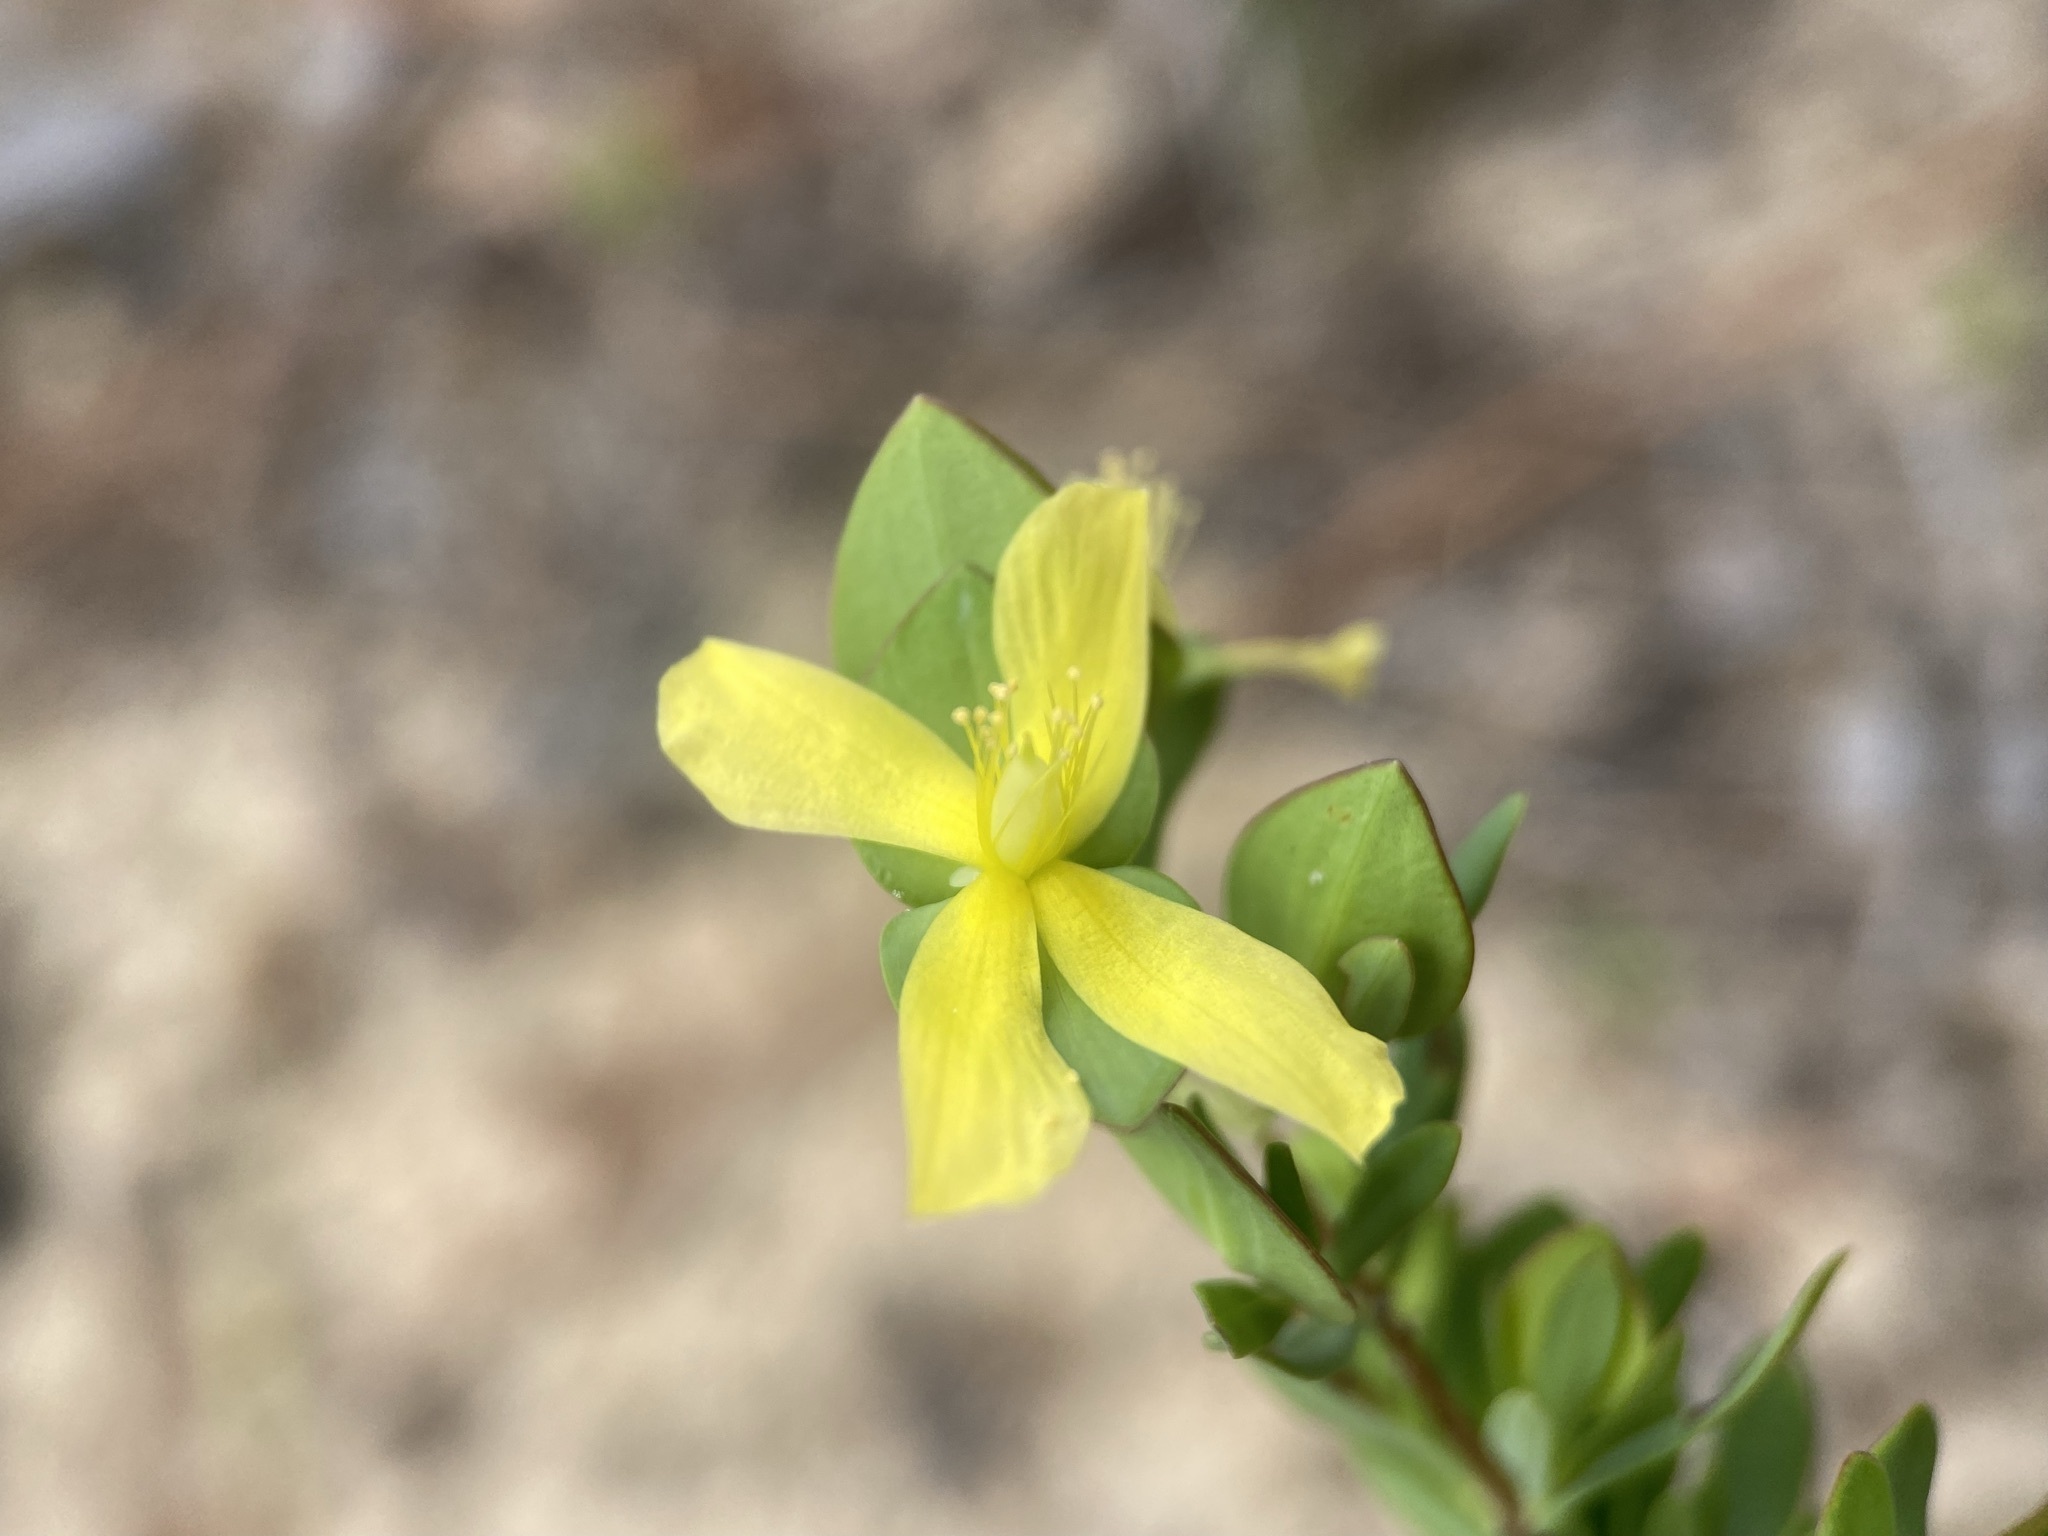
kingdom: Plantae
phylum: Tracheophyta
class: Magnoliopsida
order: Malpighiales
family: Hypericaceae
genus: Hypericum
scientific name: Hypericum hypericoides
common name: St. andrew's cross
